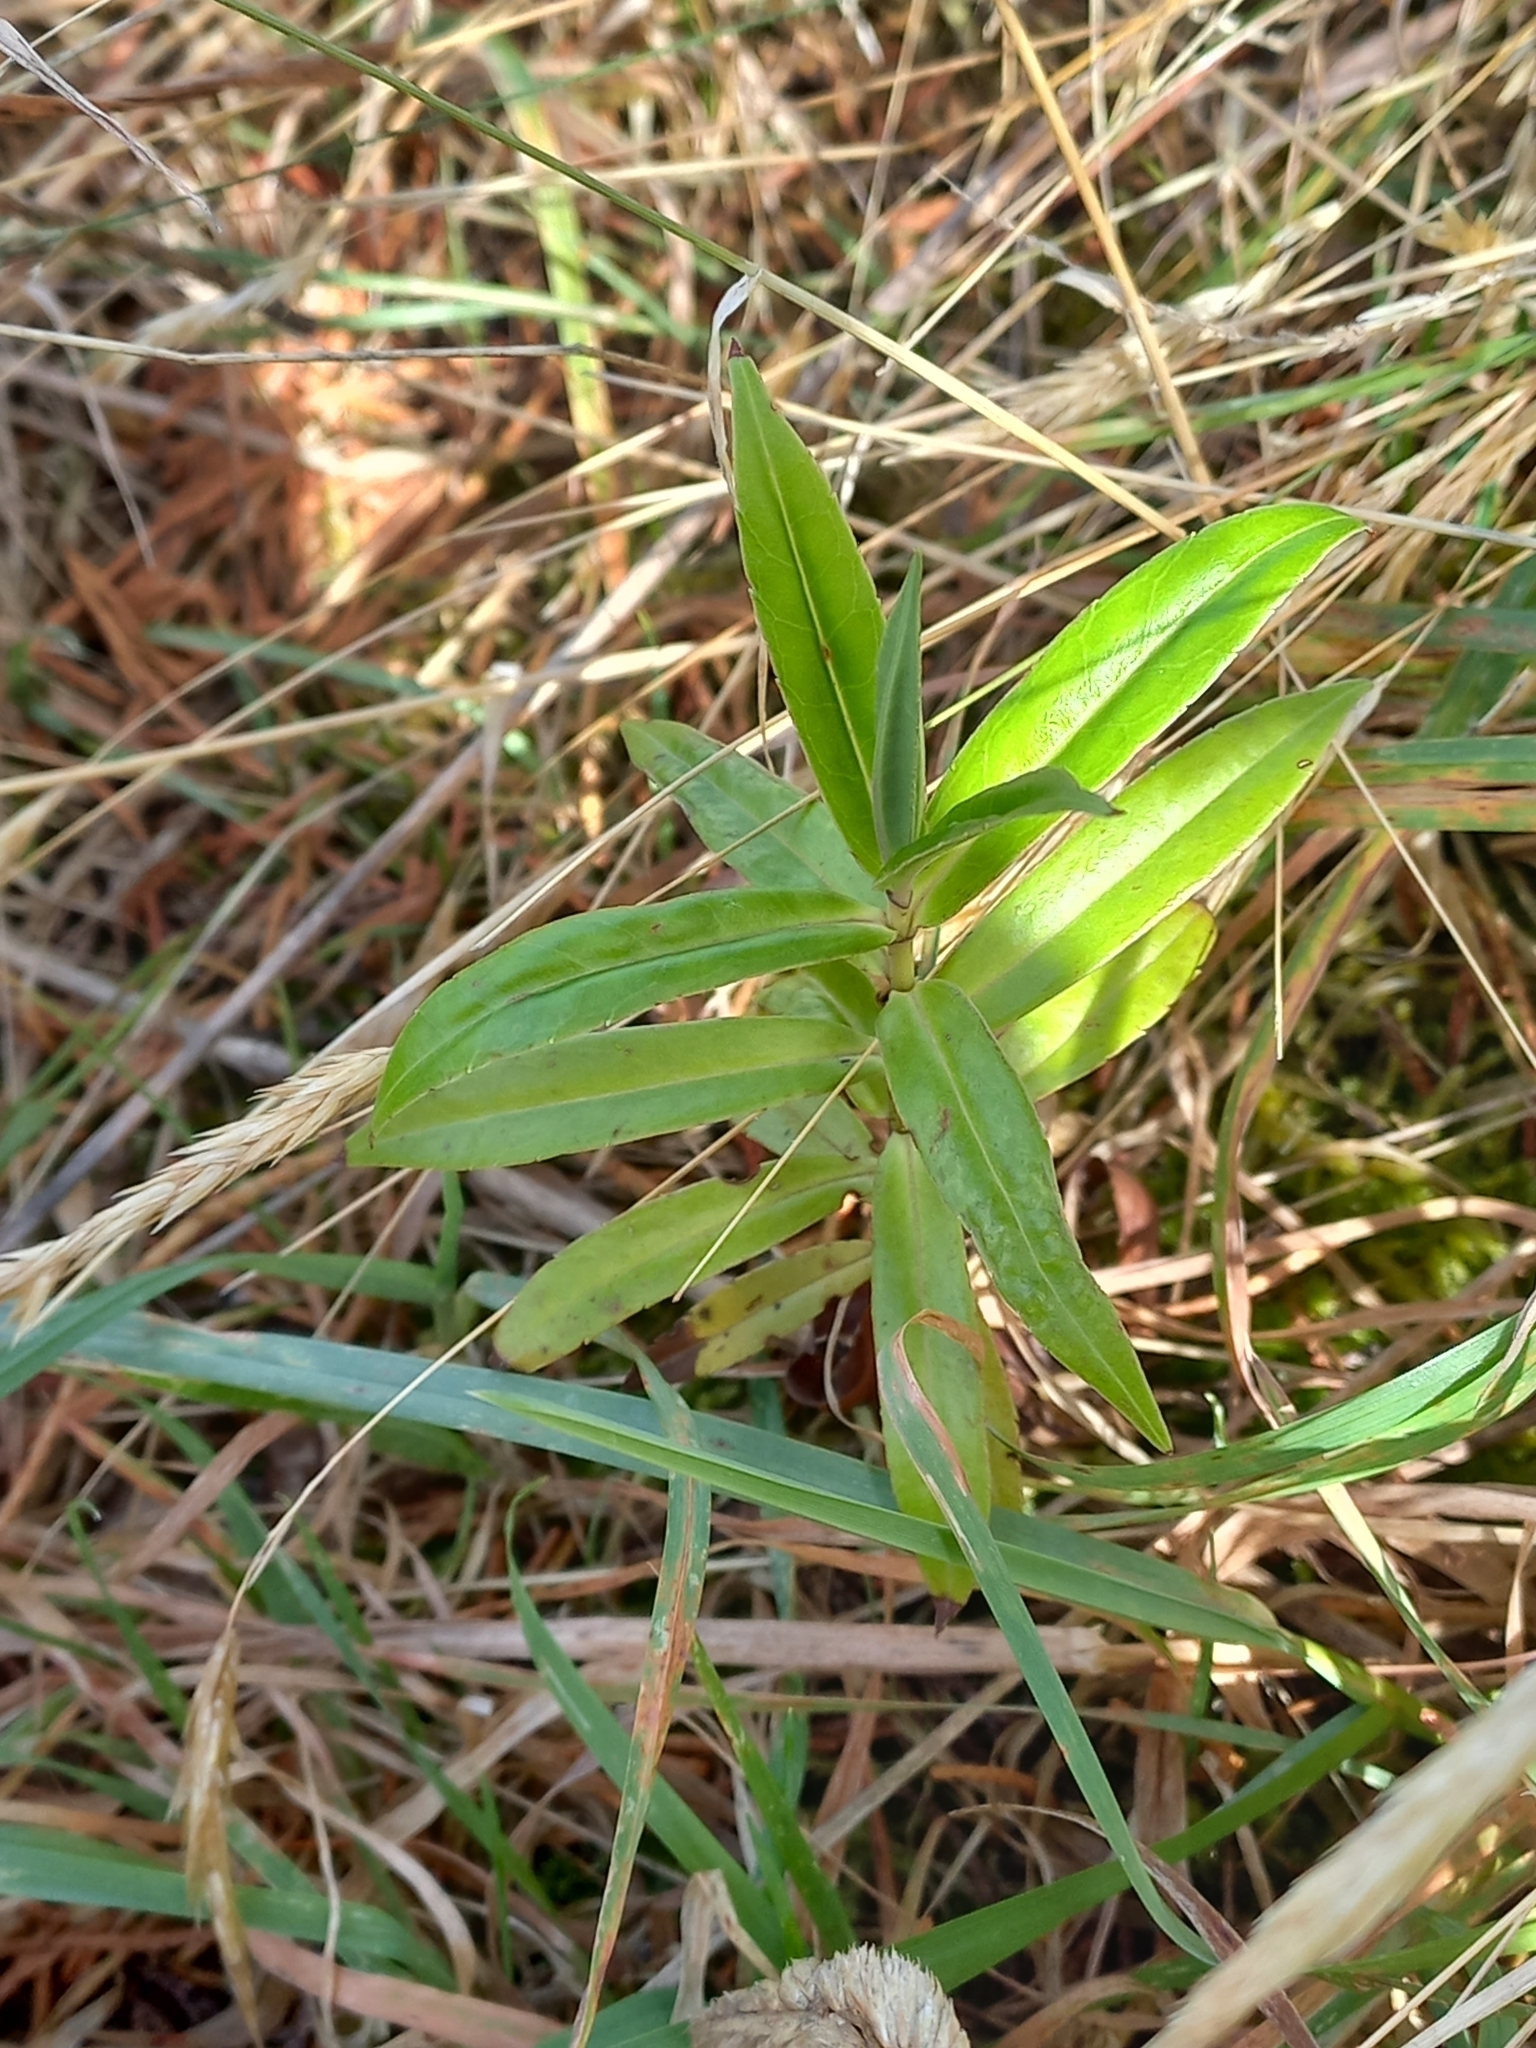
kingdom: Plantae
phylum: Tracheophyta
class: Magnoliopsida
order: Lamiales
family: Plantaginaceae
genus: Veronica
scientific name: Veronica salicifolia
